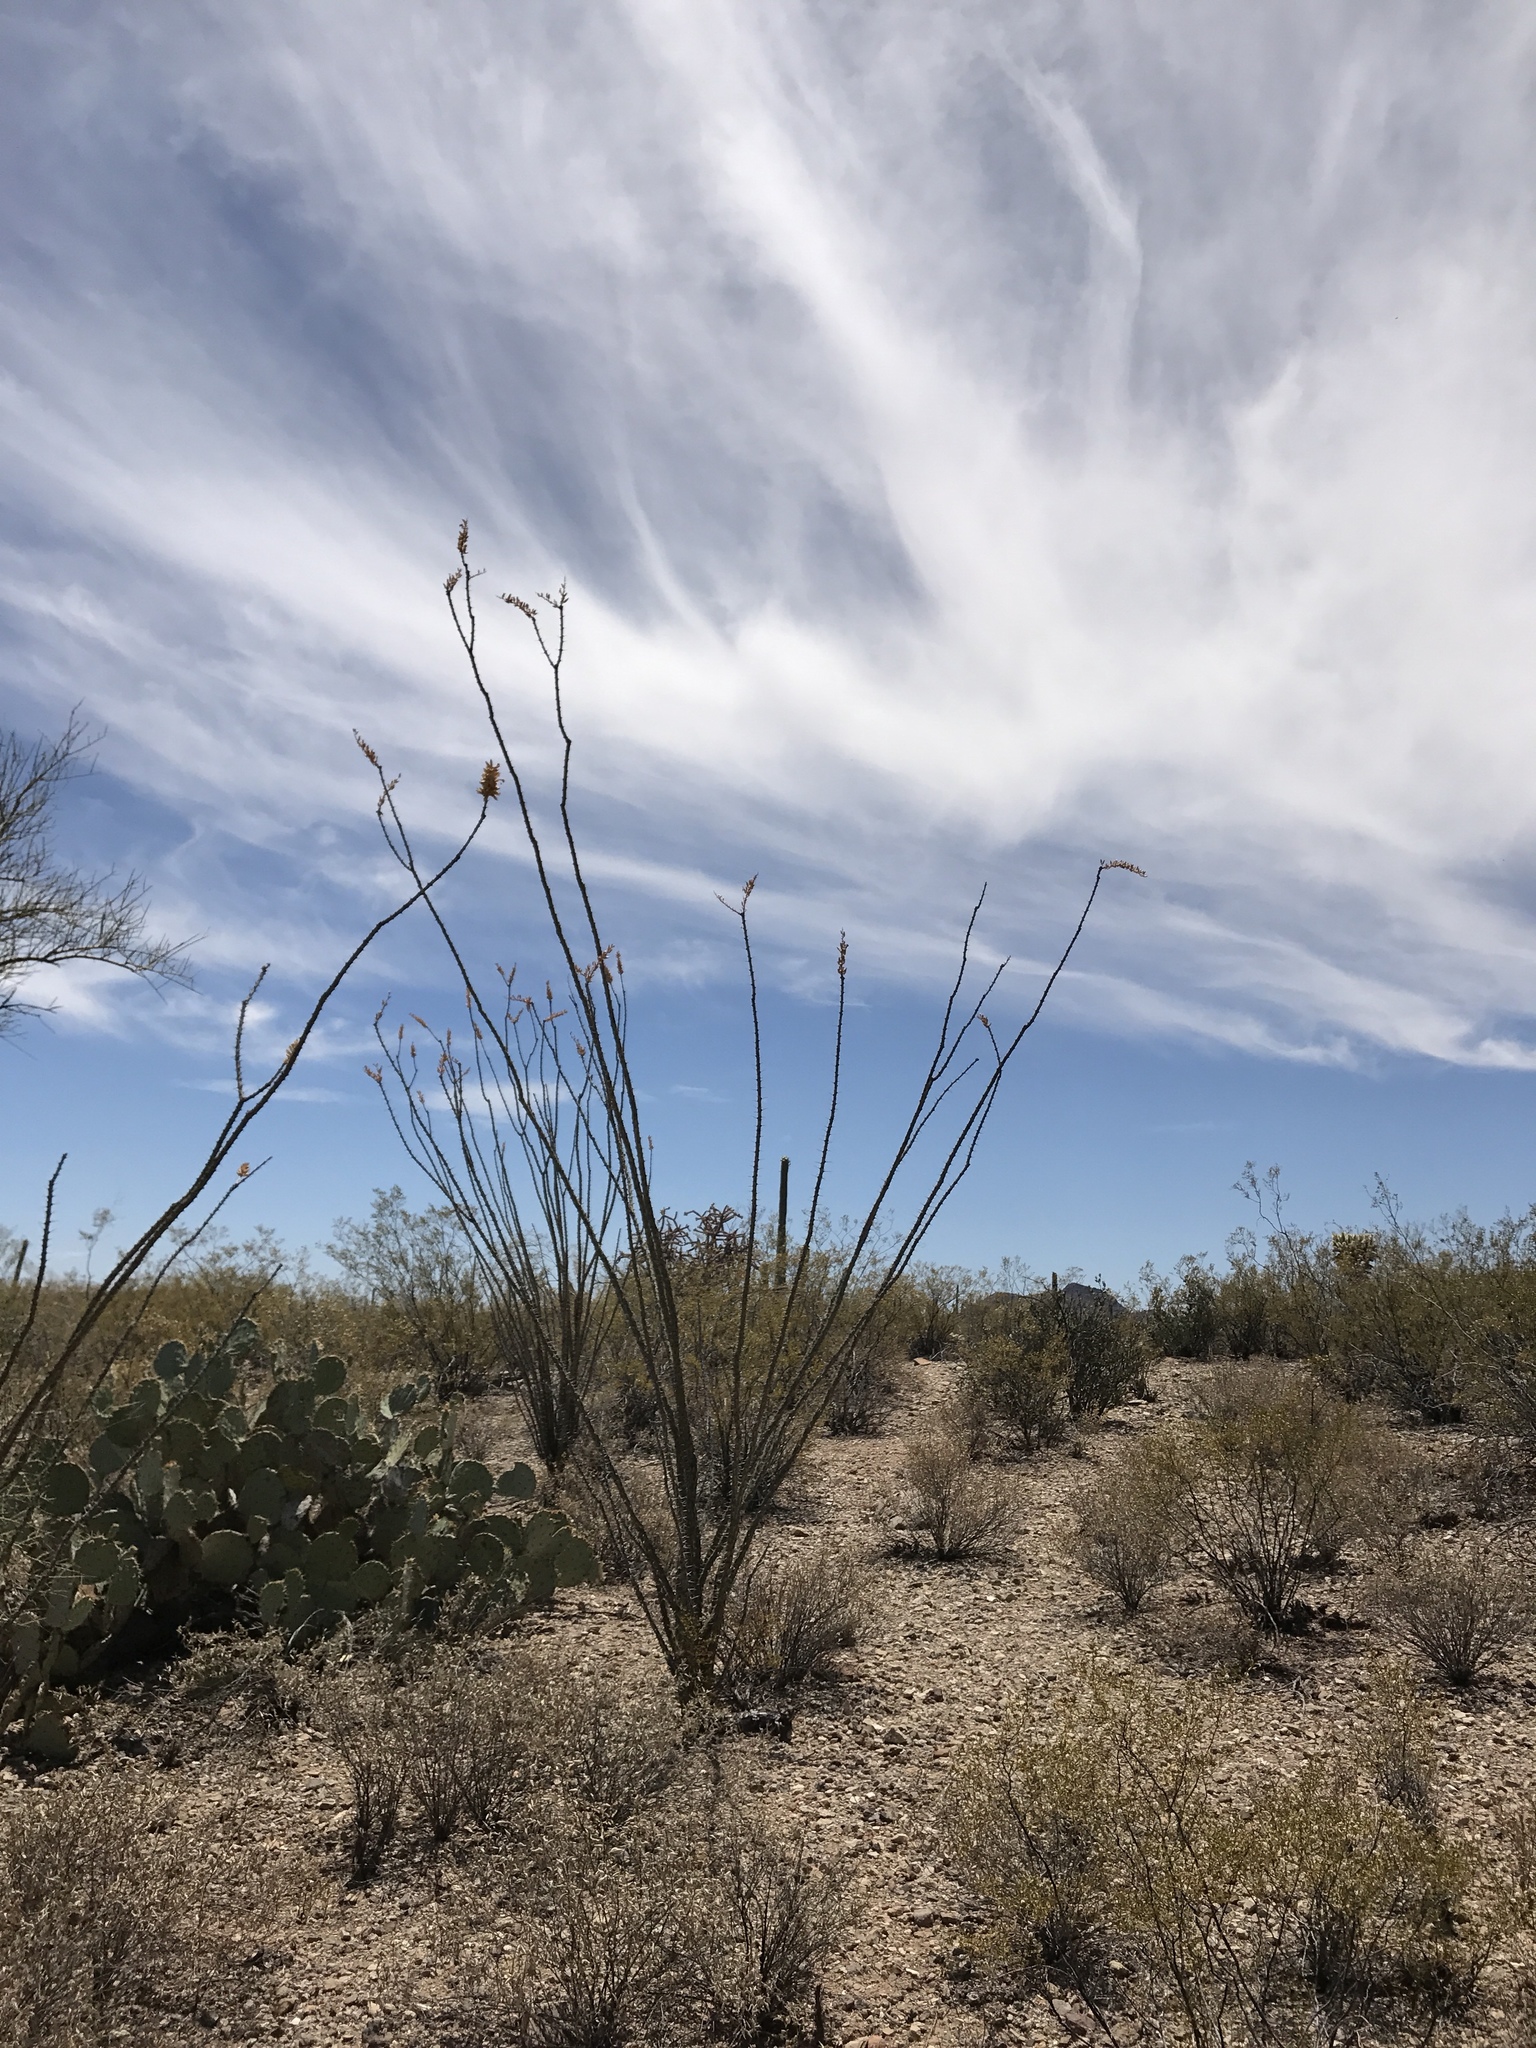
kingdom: Plantae
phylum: Tracheophyta
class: Magnoliopsida
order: Ericales
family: Fouquieriaceae
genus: Fouquieria
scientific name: Fouquieria splendens
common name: Vine-cactus
